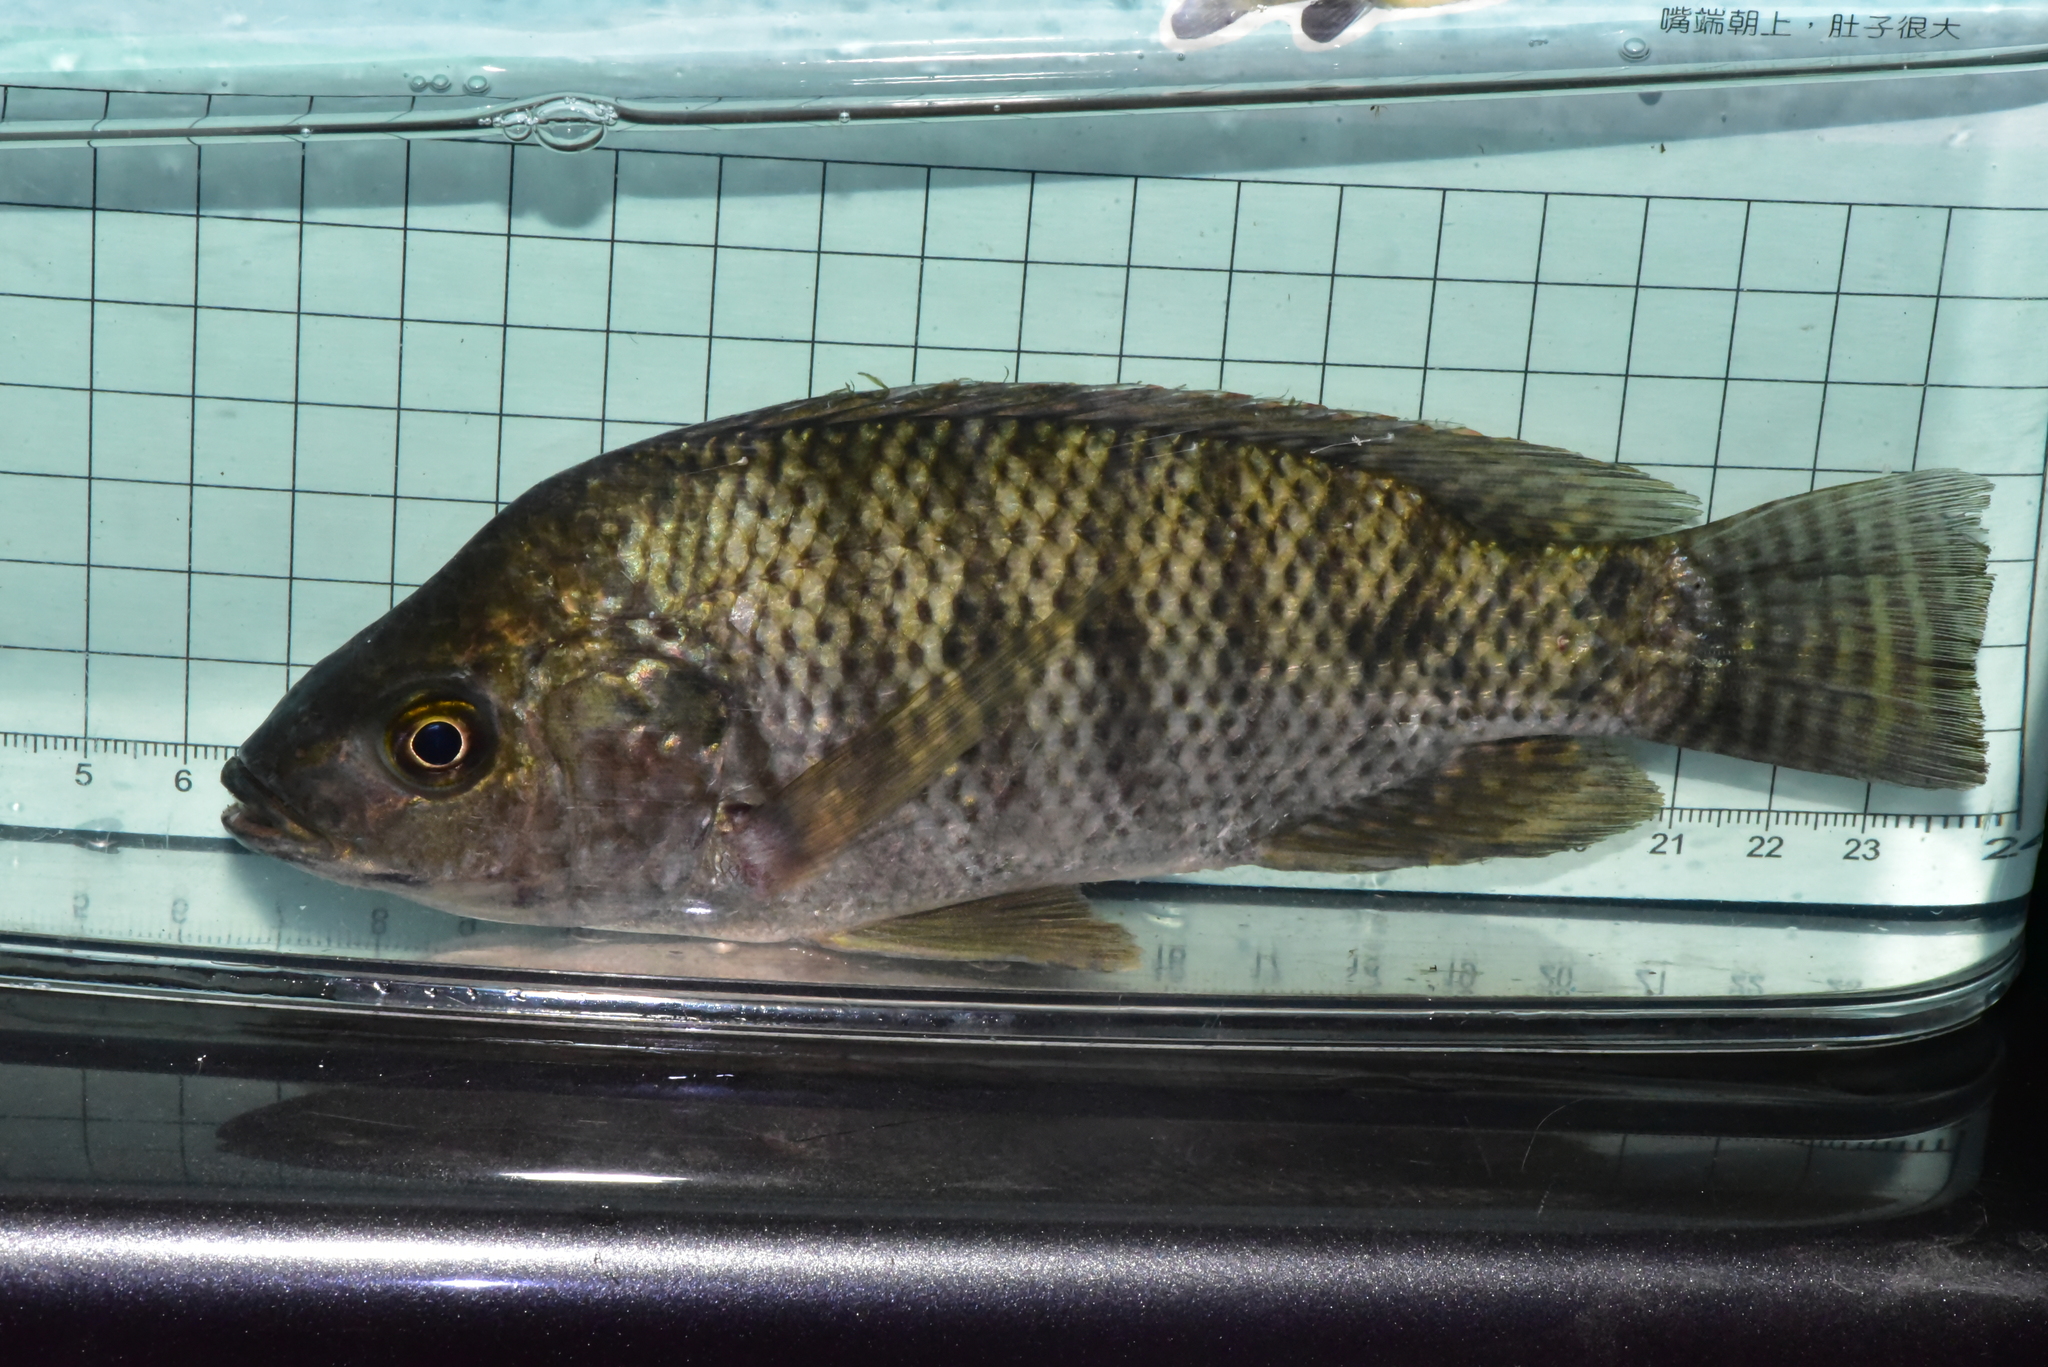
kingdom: Animalia
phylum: Chordata
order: Perciformes
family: Cichlidae
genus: Oreochromis
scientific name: Oreochromis niloticus
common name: Nile tilapia
